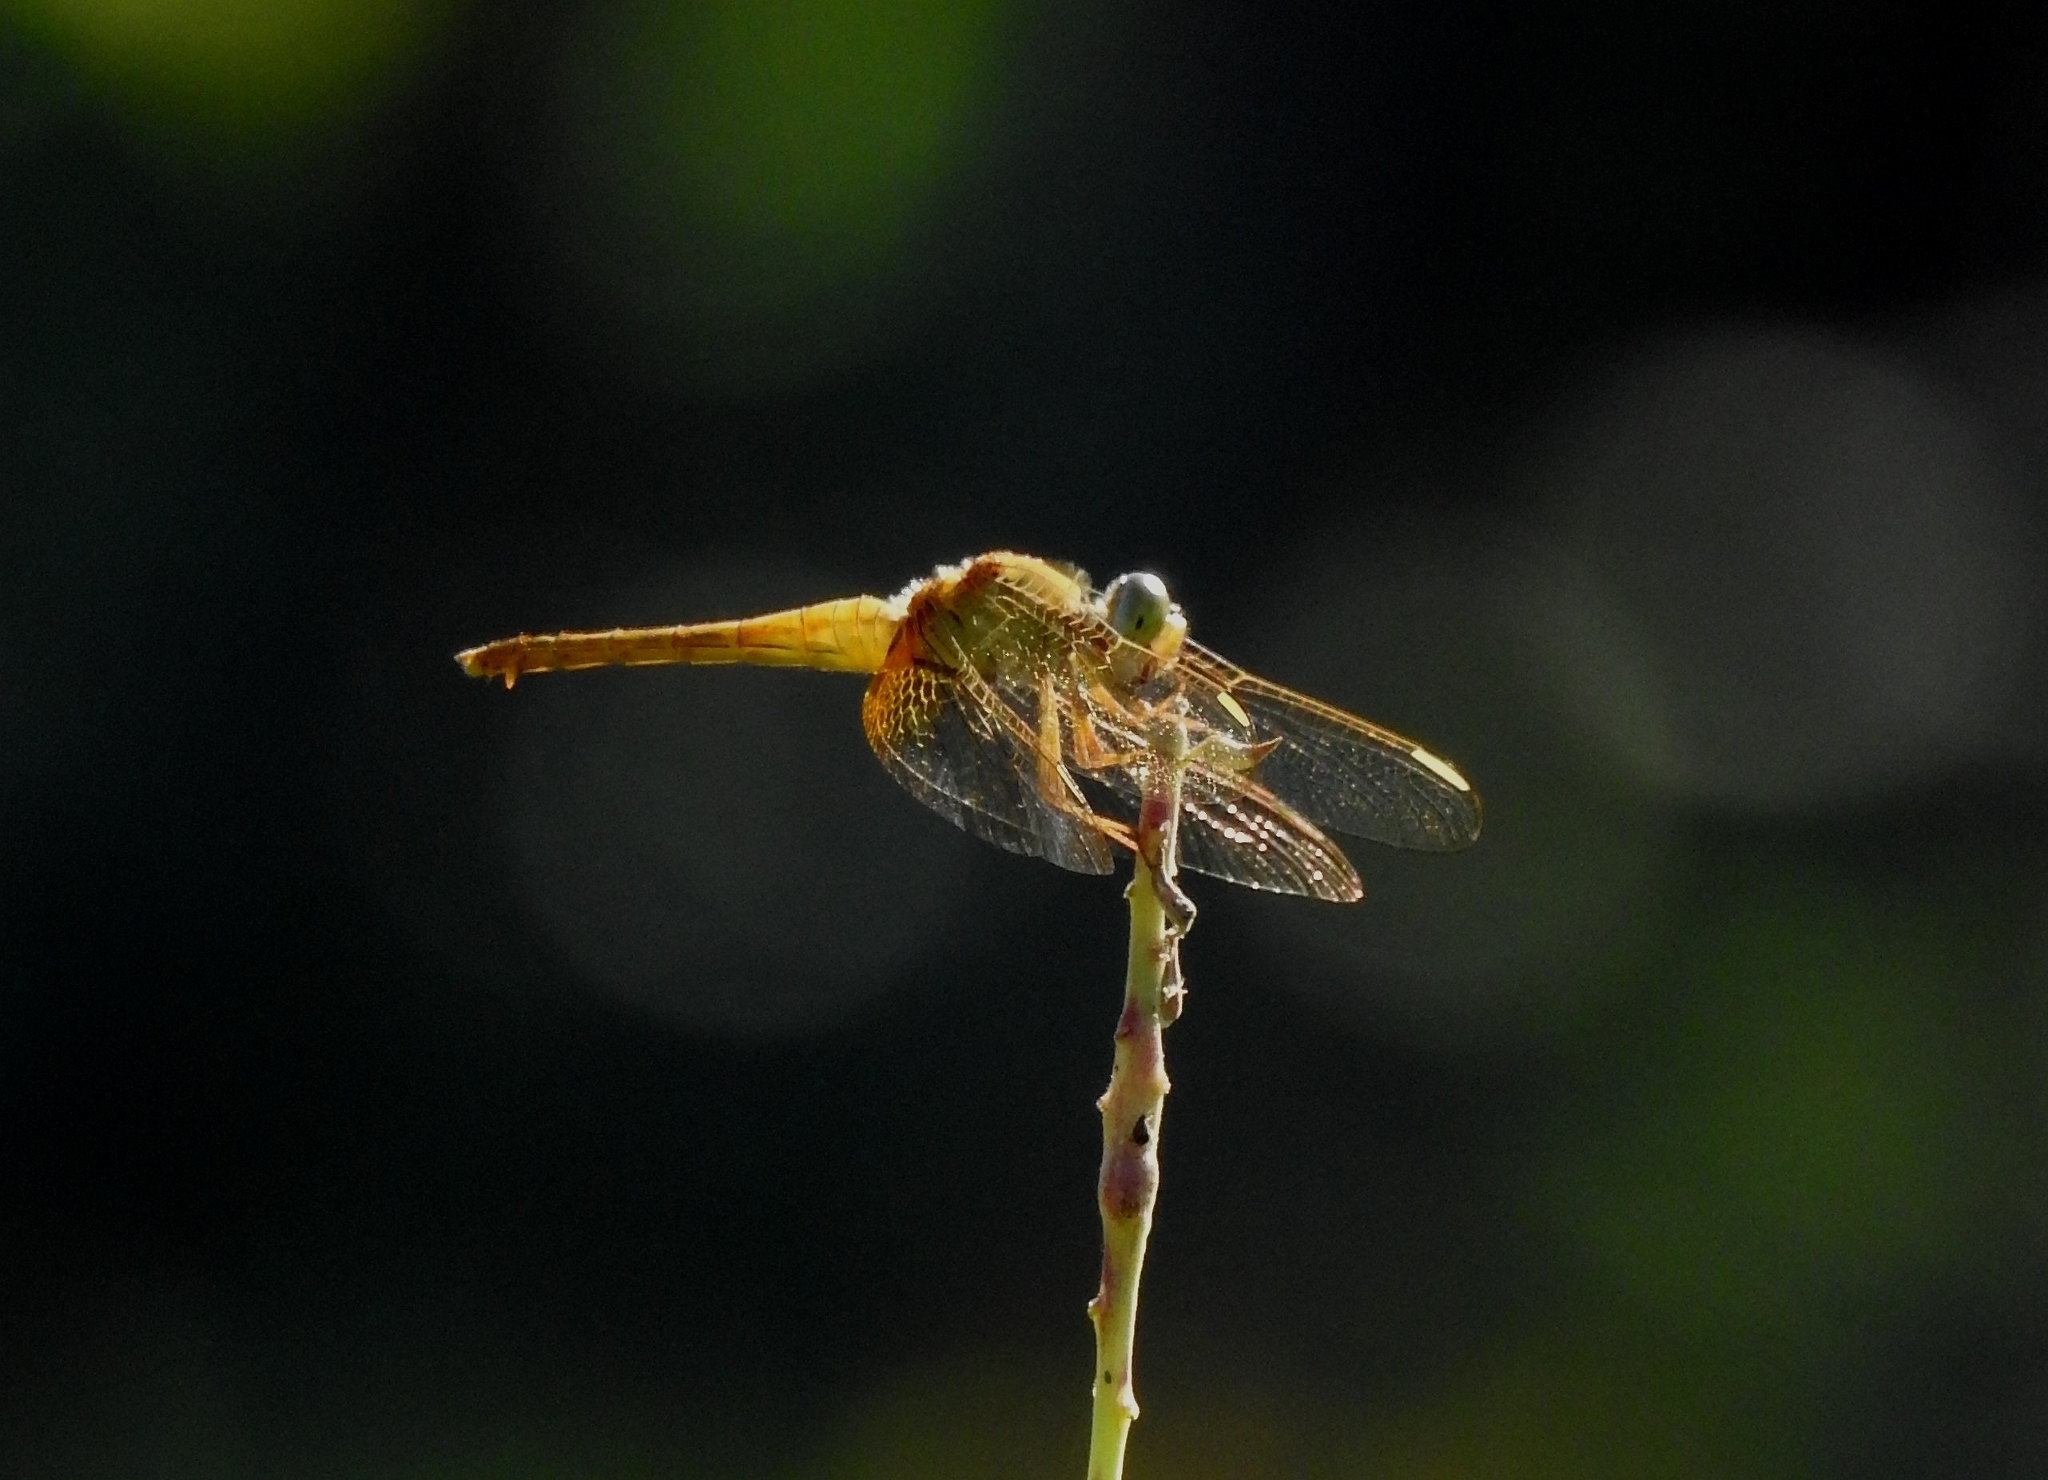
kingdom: Animalia
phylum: Arthropoda
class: Insecta
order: Odonata
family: Libellulidae
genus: Crocothemis
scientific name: Crocothemis servilia
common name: Scarlet skimmer
